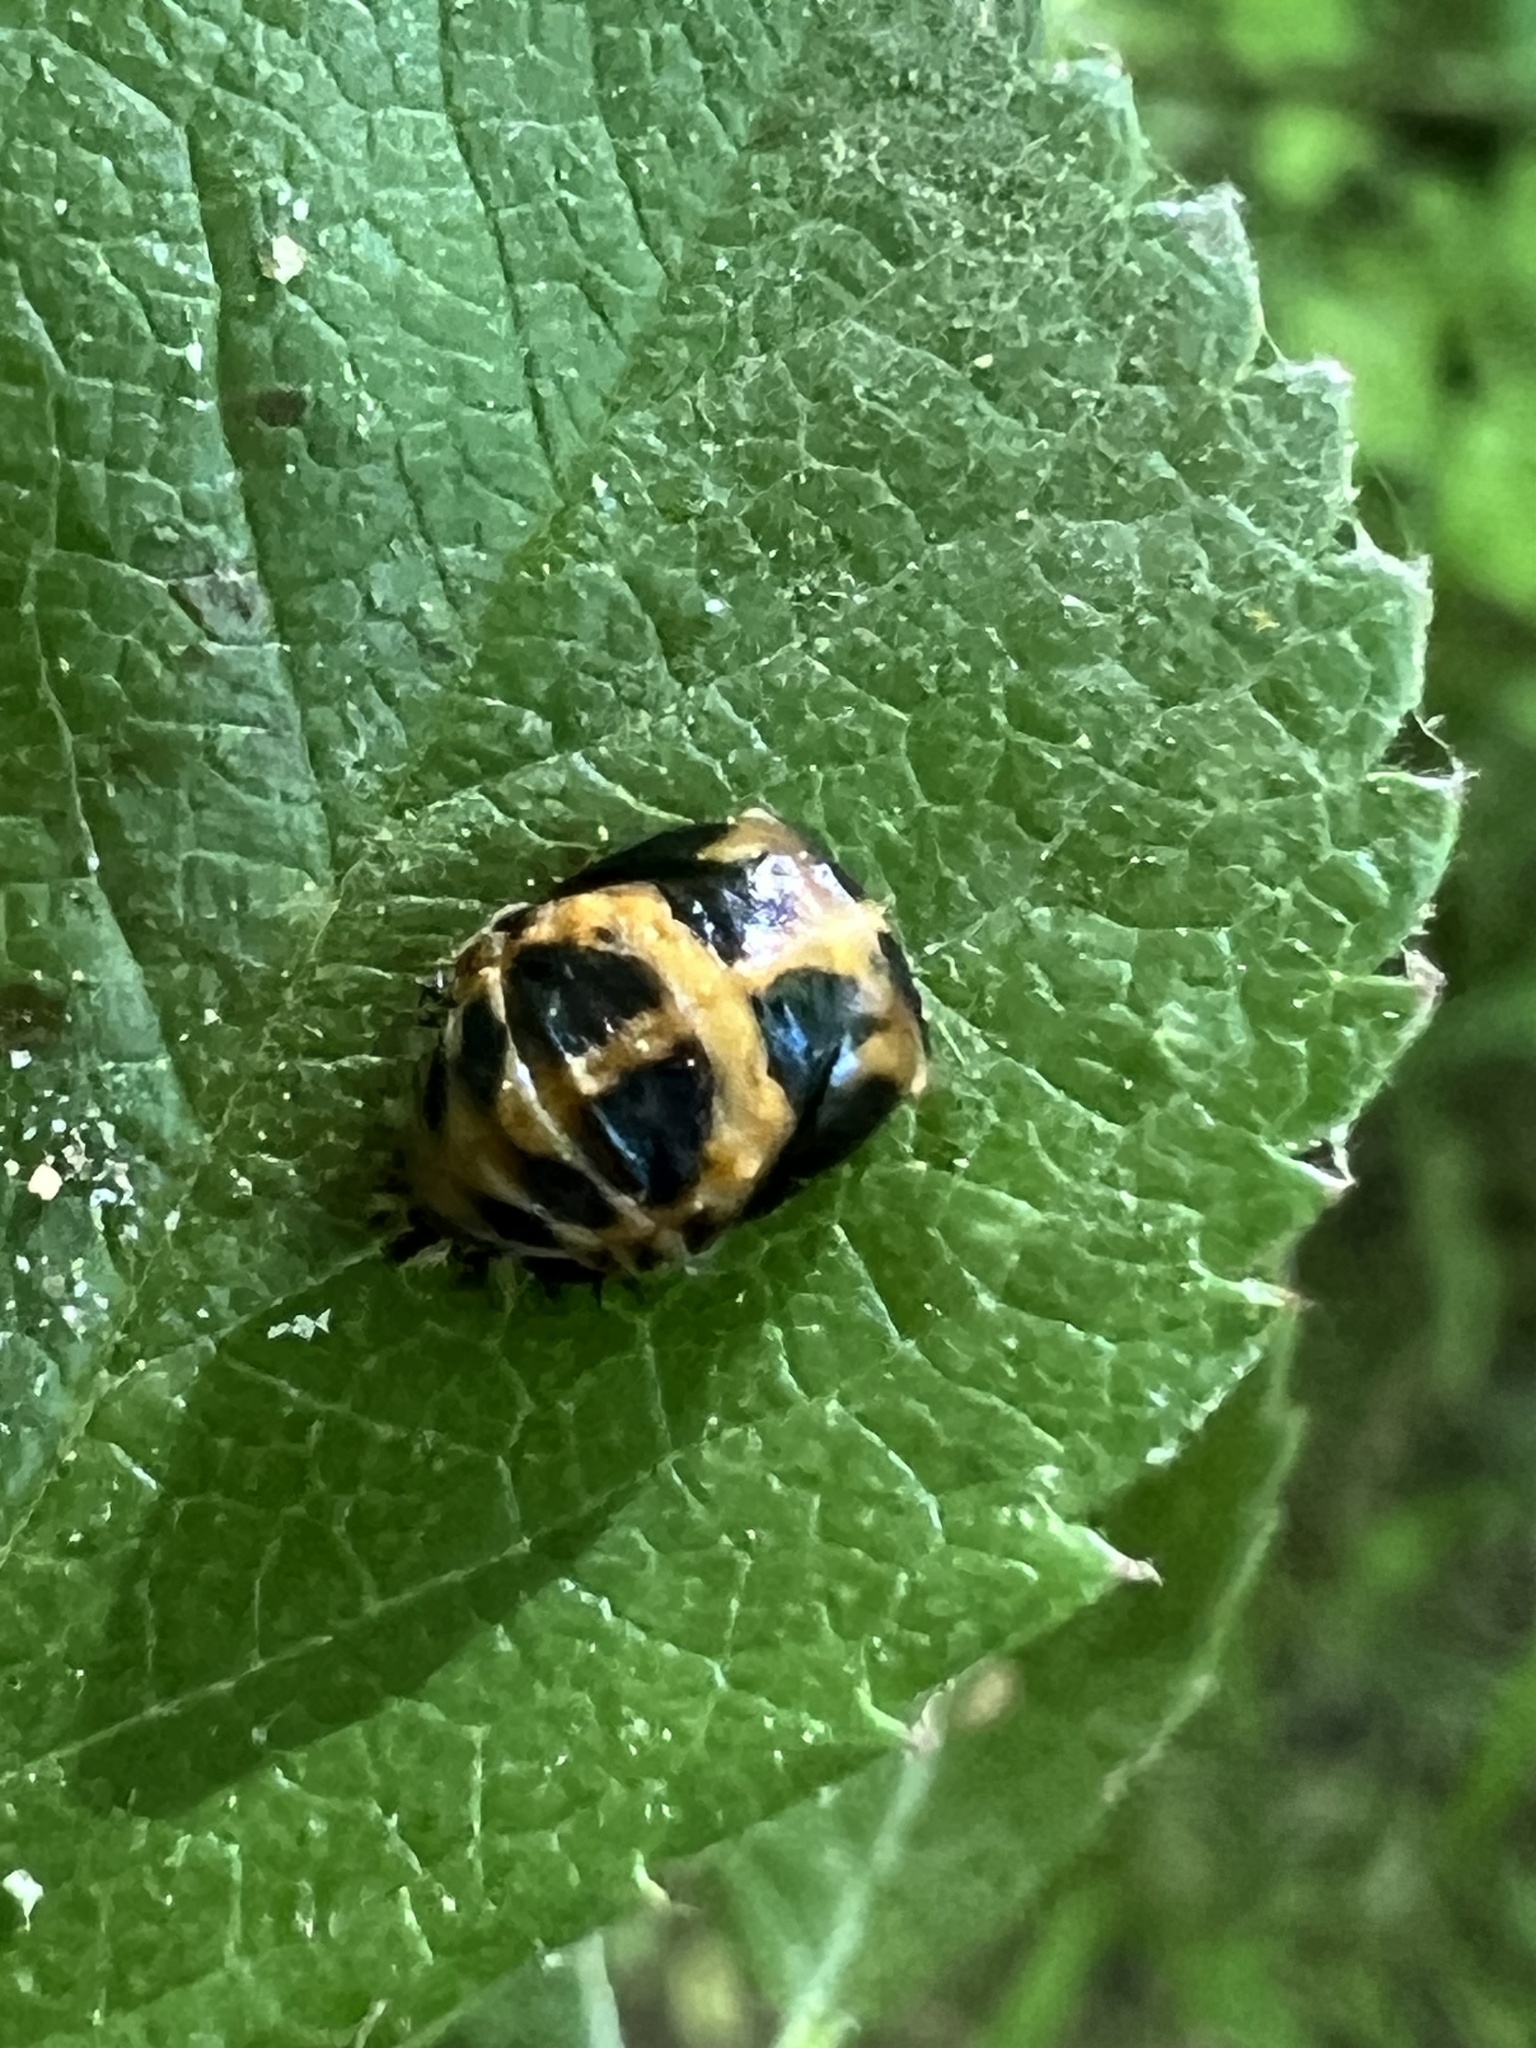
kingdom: Animalia
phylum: Arthropoda
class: Insecta
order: Coleoptera
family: Coccinellidae
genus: Harmonia
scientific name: Harmonia axyridis
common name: Harlequin ladybird
